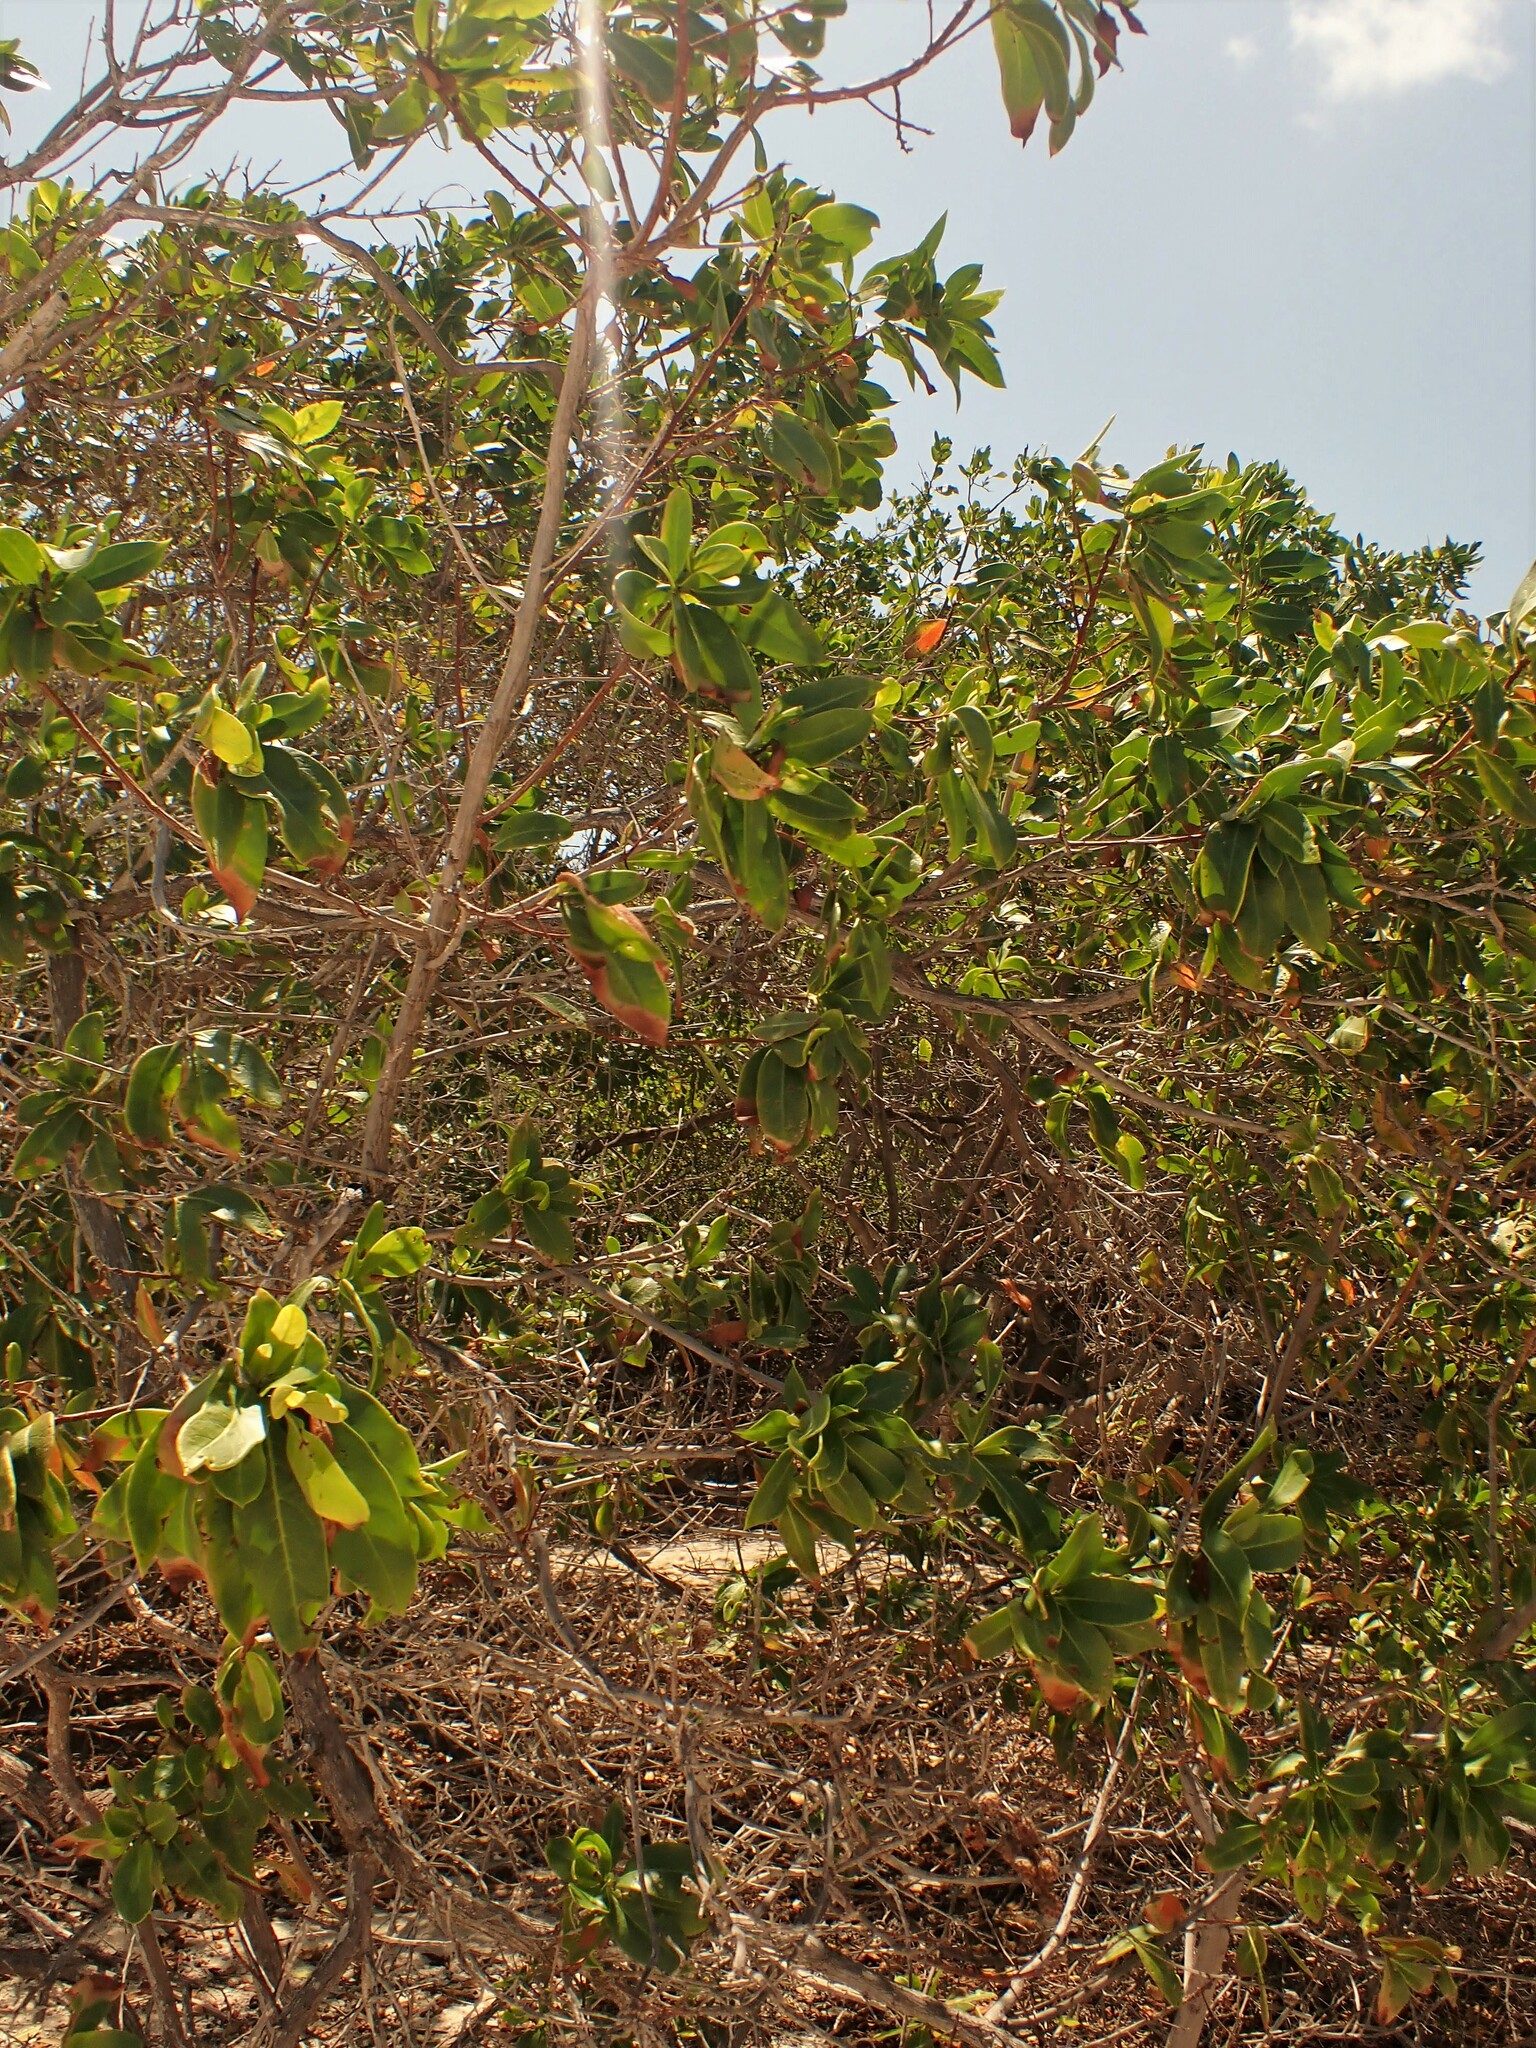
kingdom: Plantae
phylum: Tracheophyta
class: Magnoliopsida
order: Myrtales
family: Combretaceae
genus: Conocarpus
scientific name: Conocarpus erectus
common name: Button mangrove
